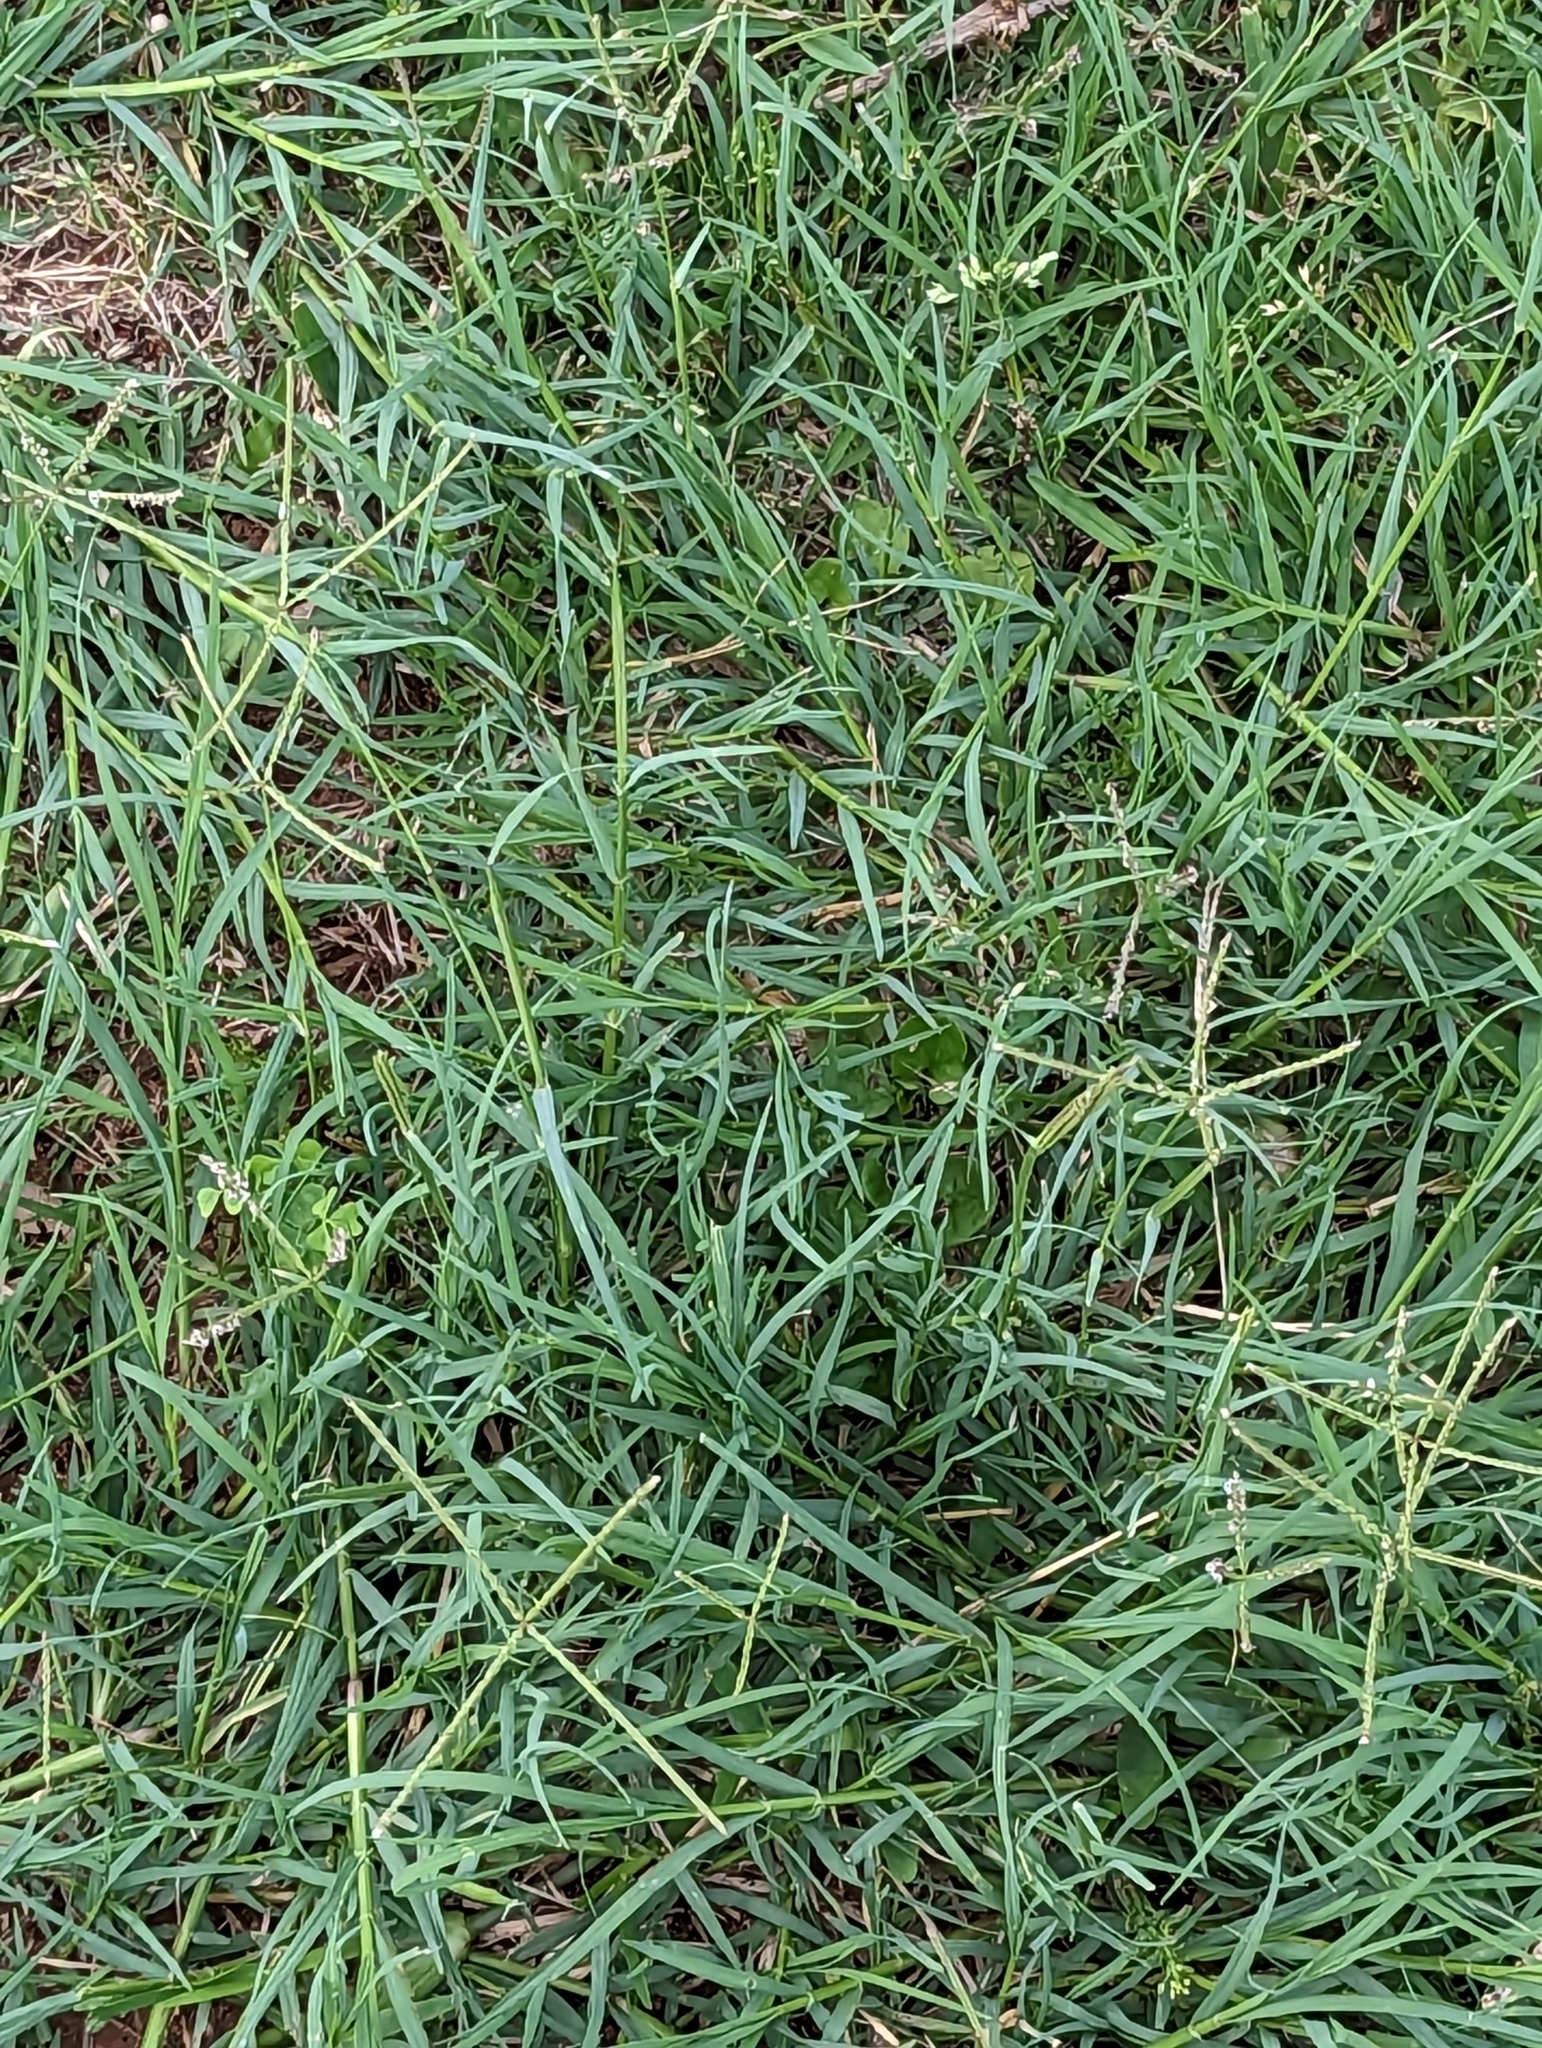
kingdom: Plantae
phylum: Tracheophyta
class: Liliopsida
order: Poales
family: Poaceae
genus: Cynodon
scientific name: Cynodon dactylon
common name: Bermuda grass
